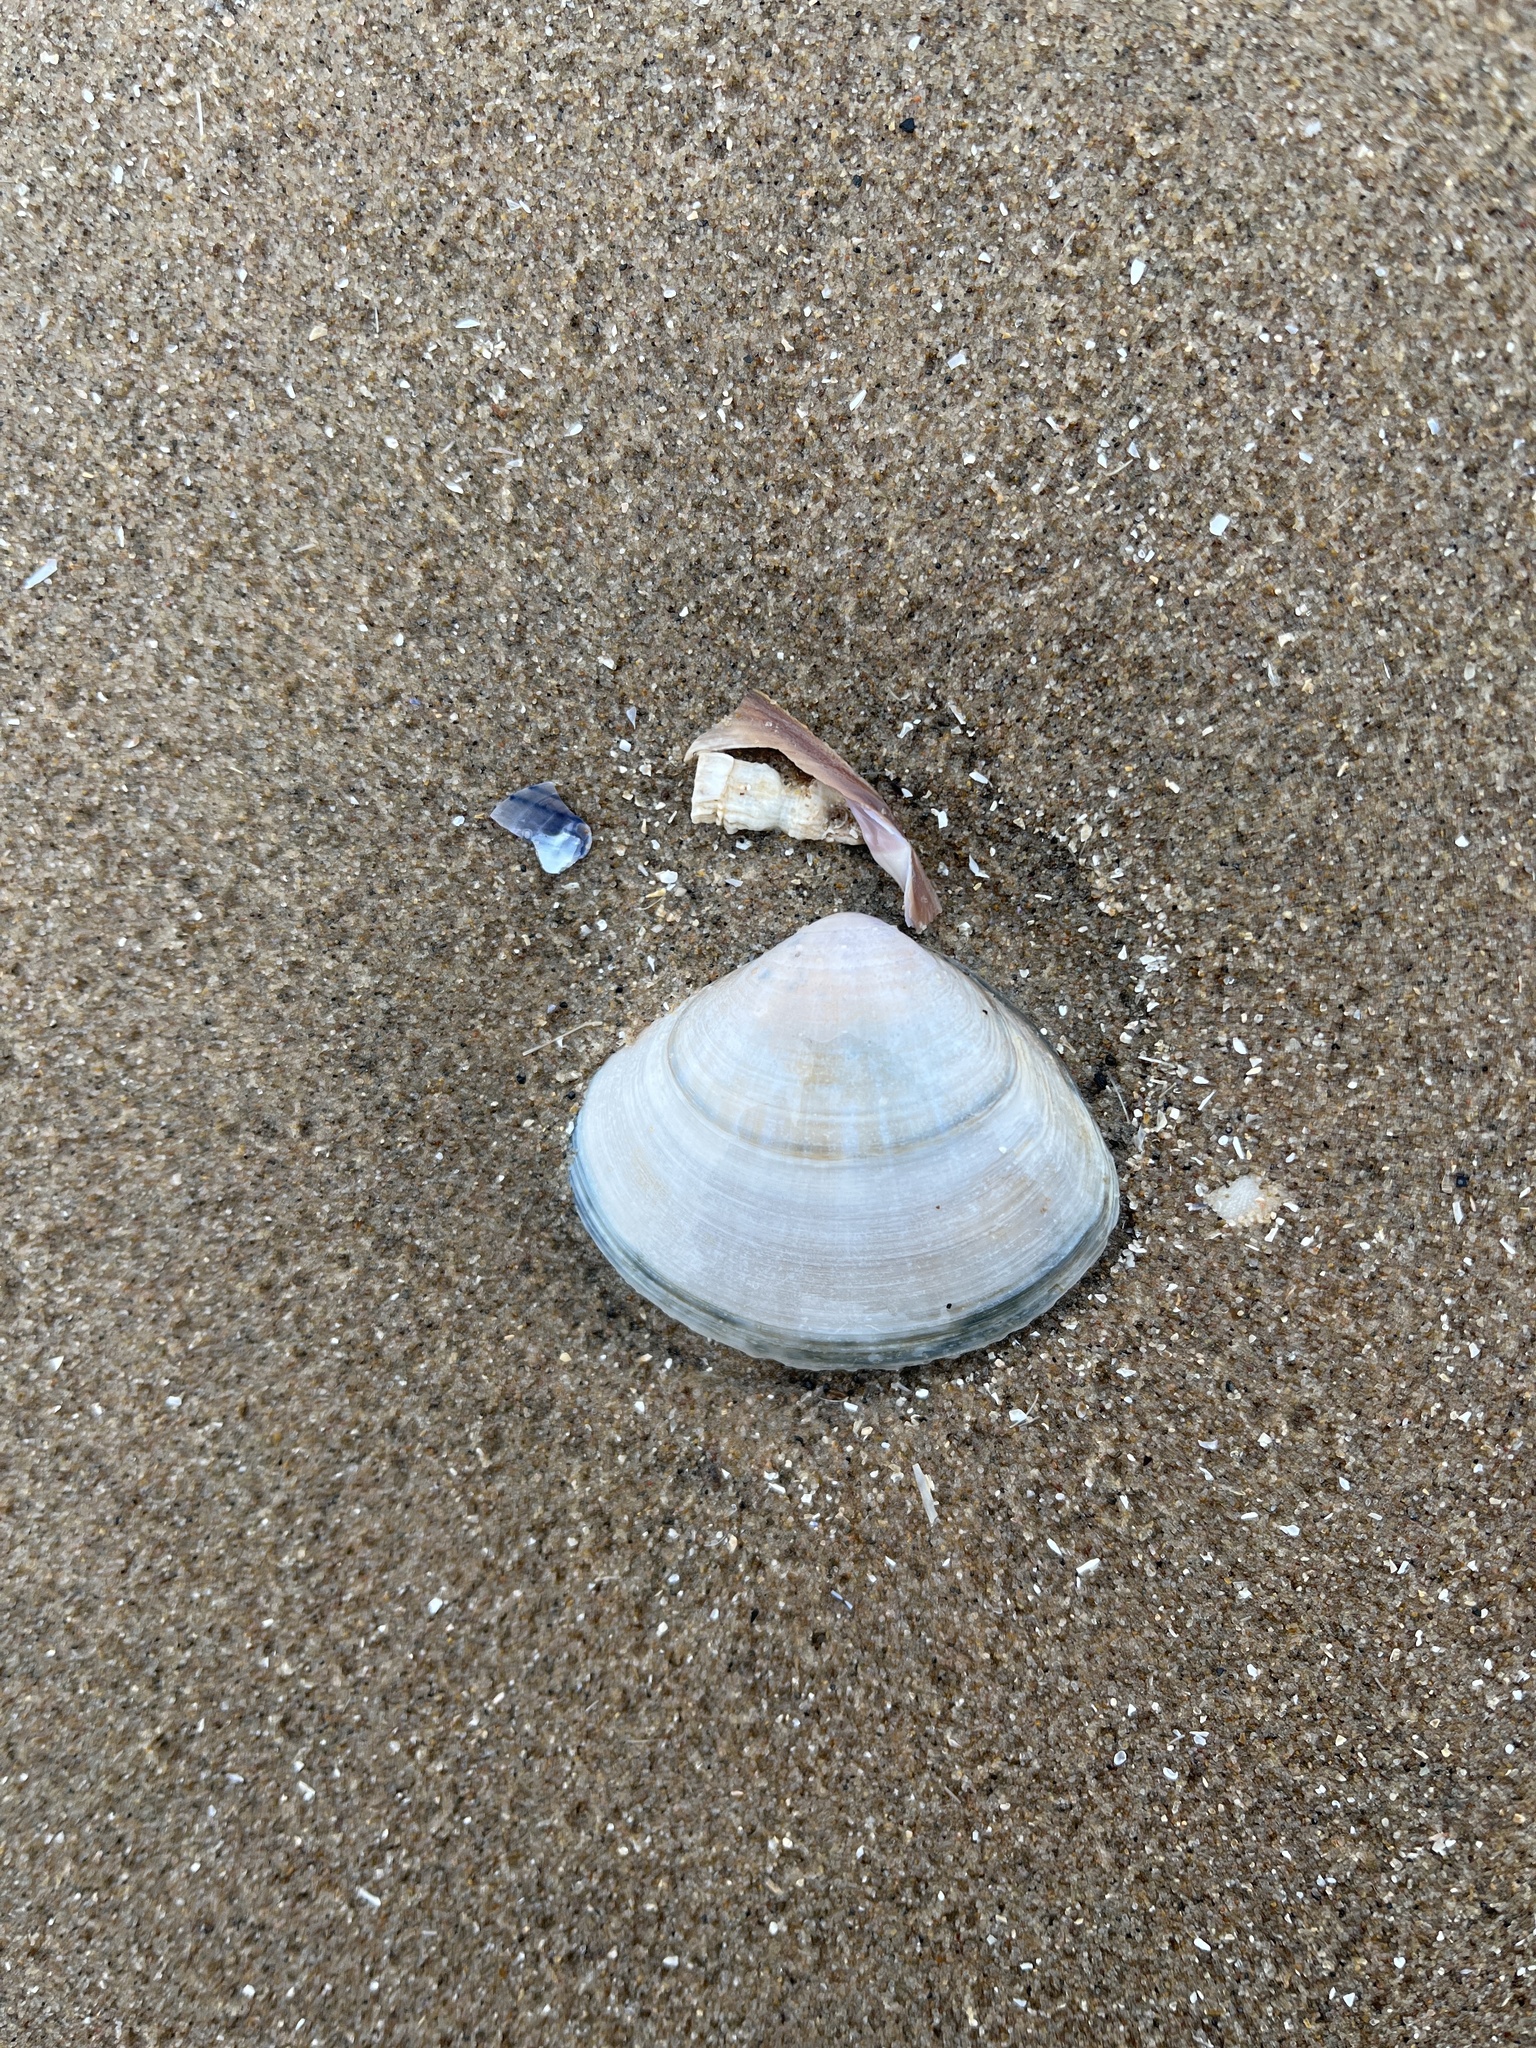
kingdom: Animalia
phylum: Mollusca
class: Bivalvia
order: Venerida
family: Mactridae
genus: Mactra
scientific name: Mactra stultorum
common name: Rayed trough shell
